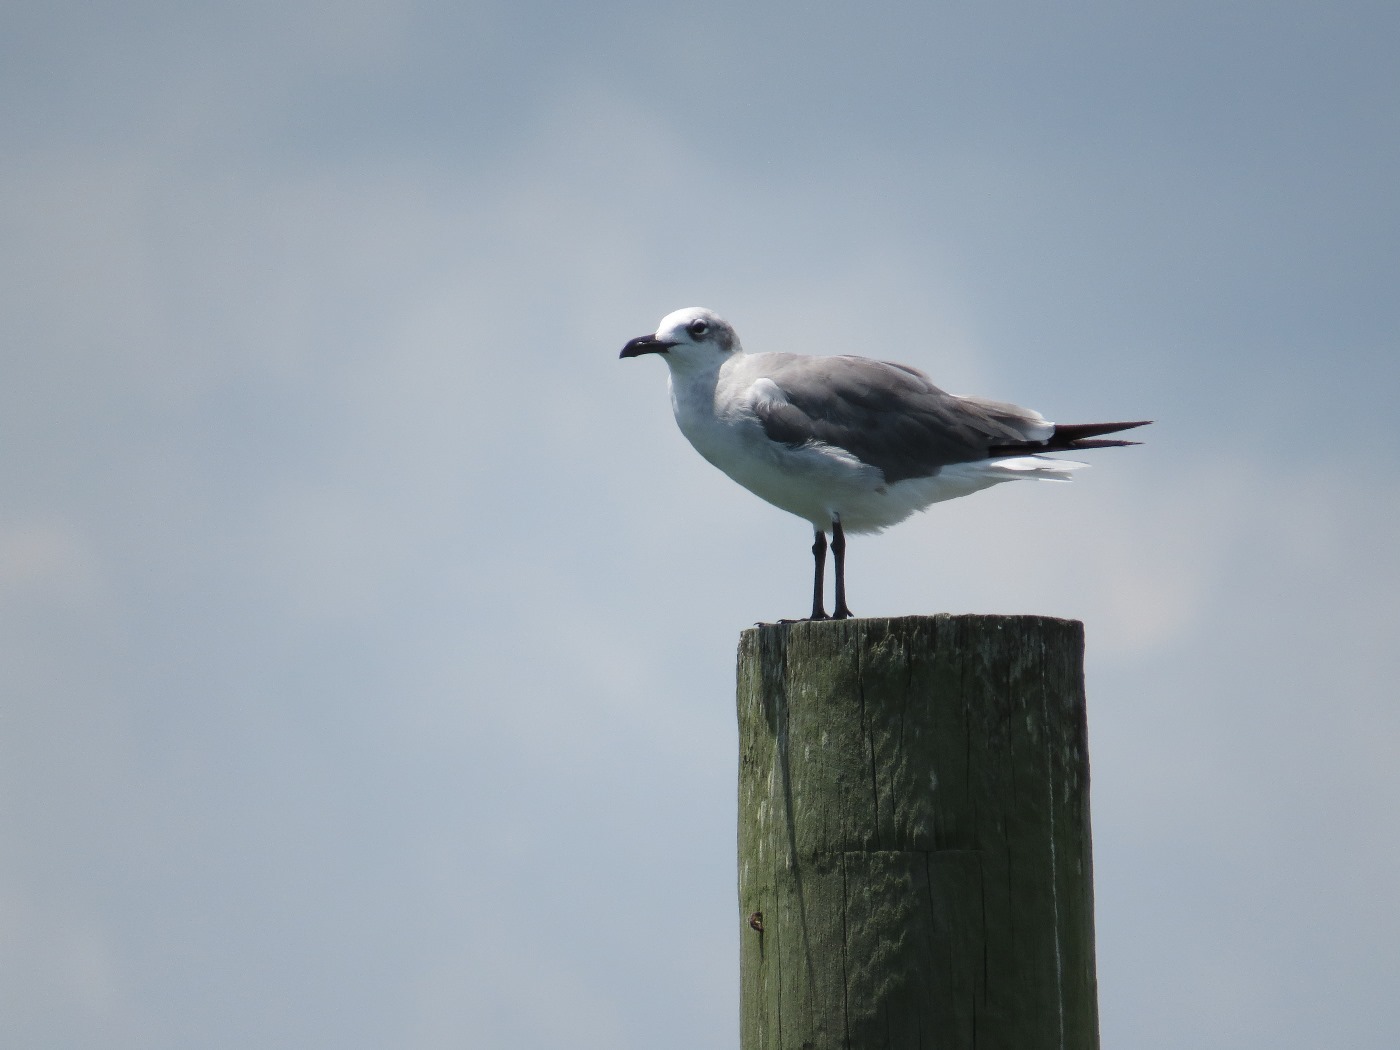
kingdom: Animalia
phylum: Chordata
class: Aves
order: Charadriiformes
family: Laridae
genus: Leucophaeus
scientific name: Leucophaeus atricilla
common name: Laughing gull
